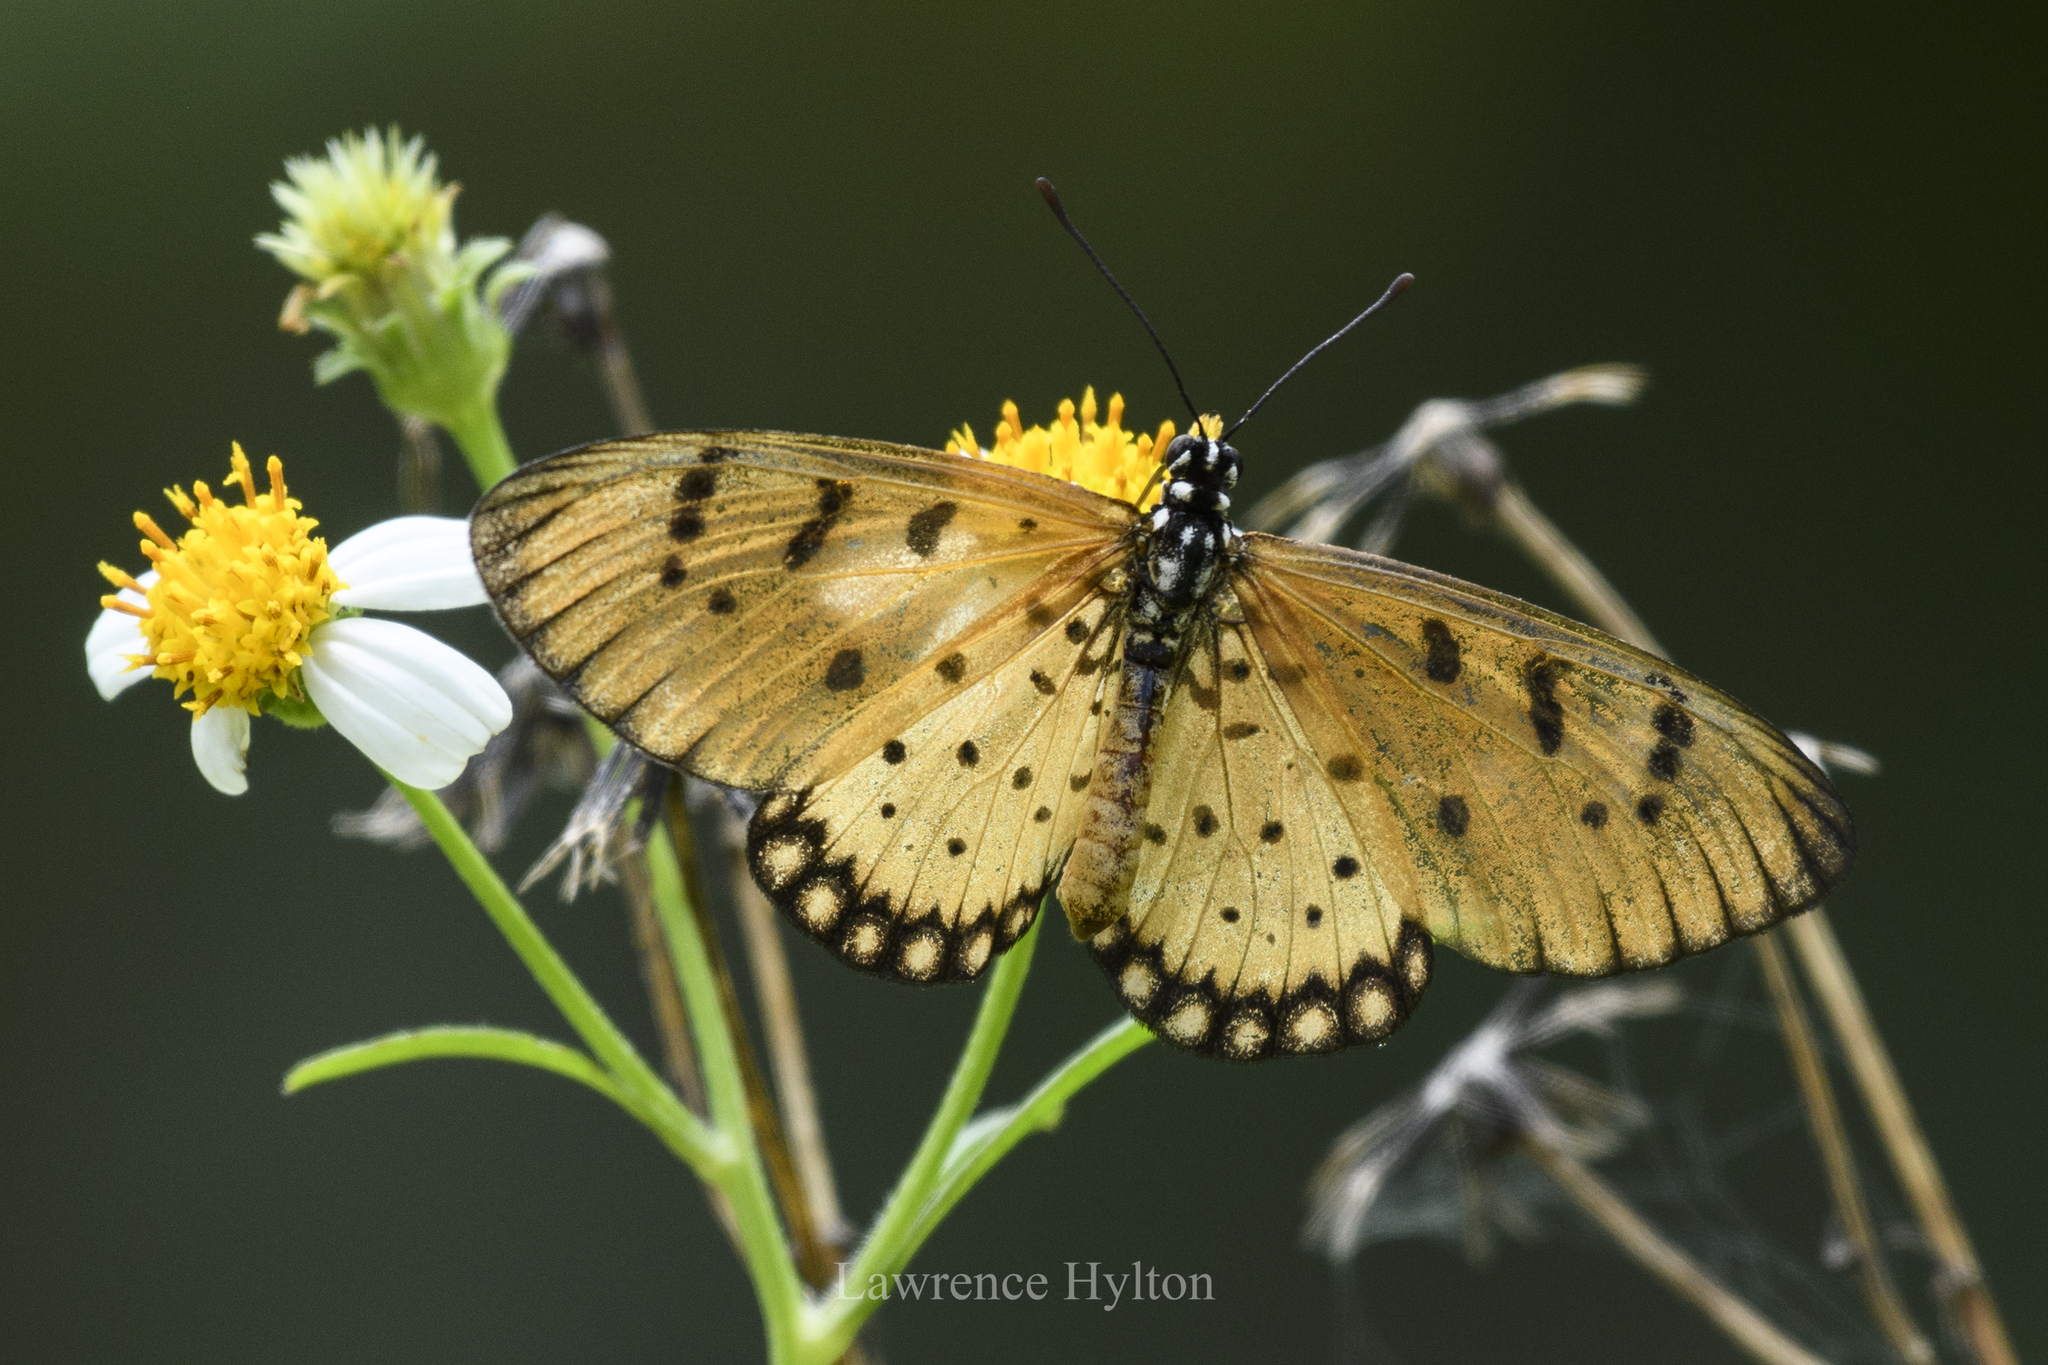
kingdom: Animalia
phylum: Arthropoda
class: Insecta
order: Lepidoptera
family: Nymphalidae
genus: Acraea
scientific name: Acraea terpsicore
